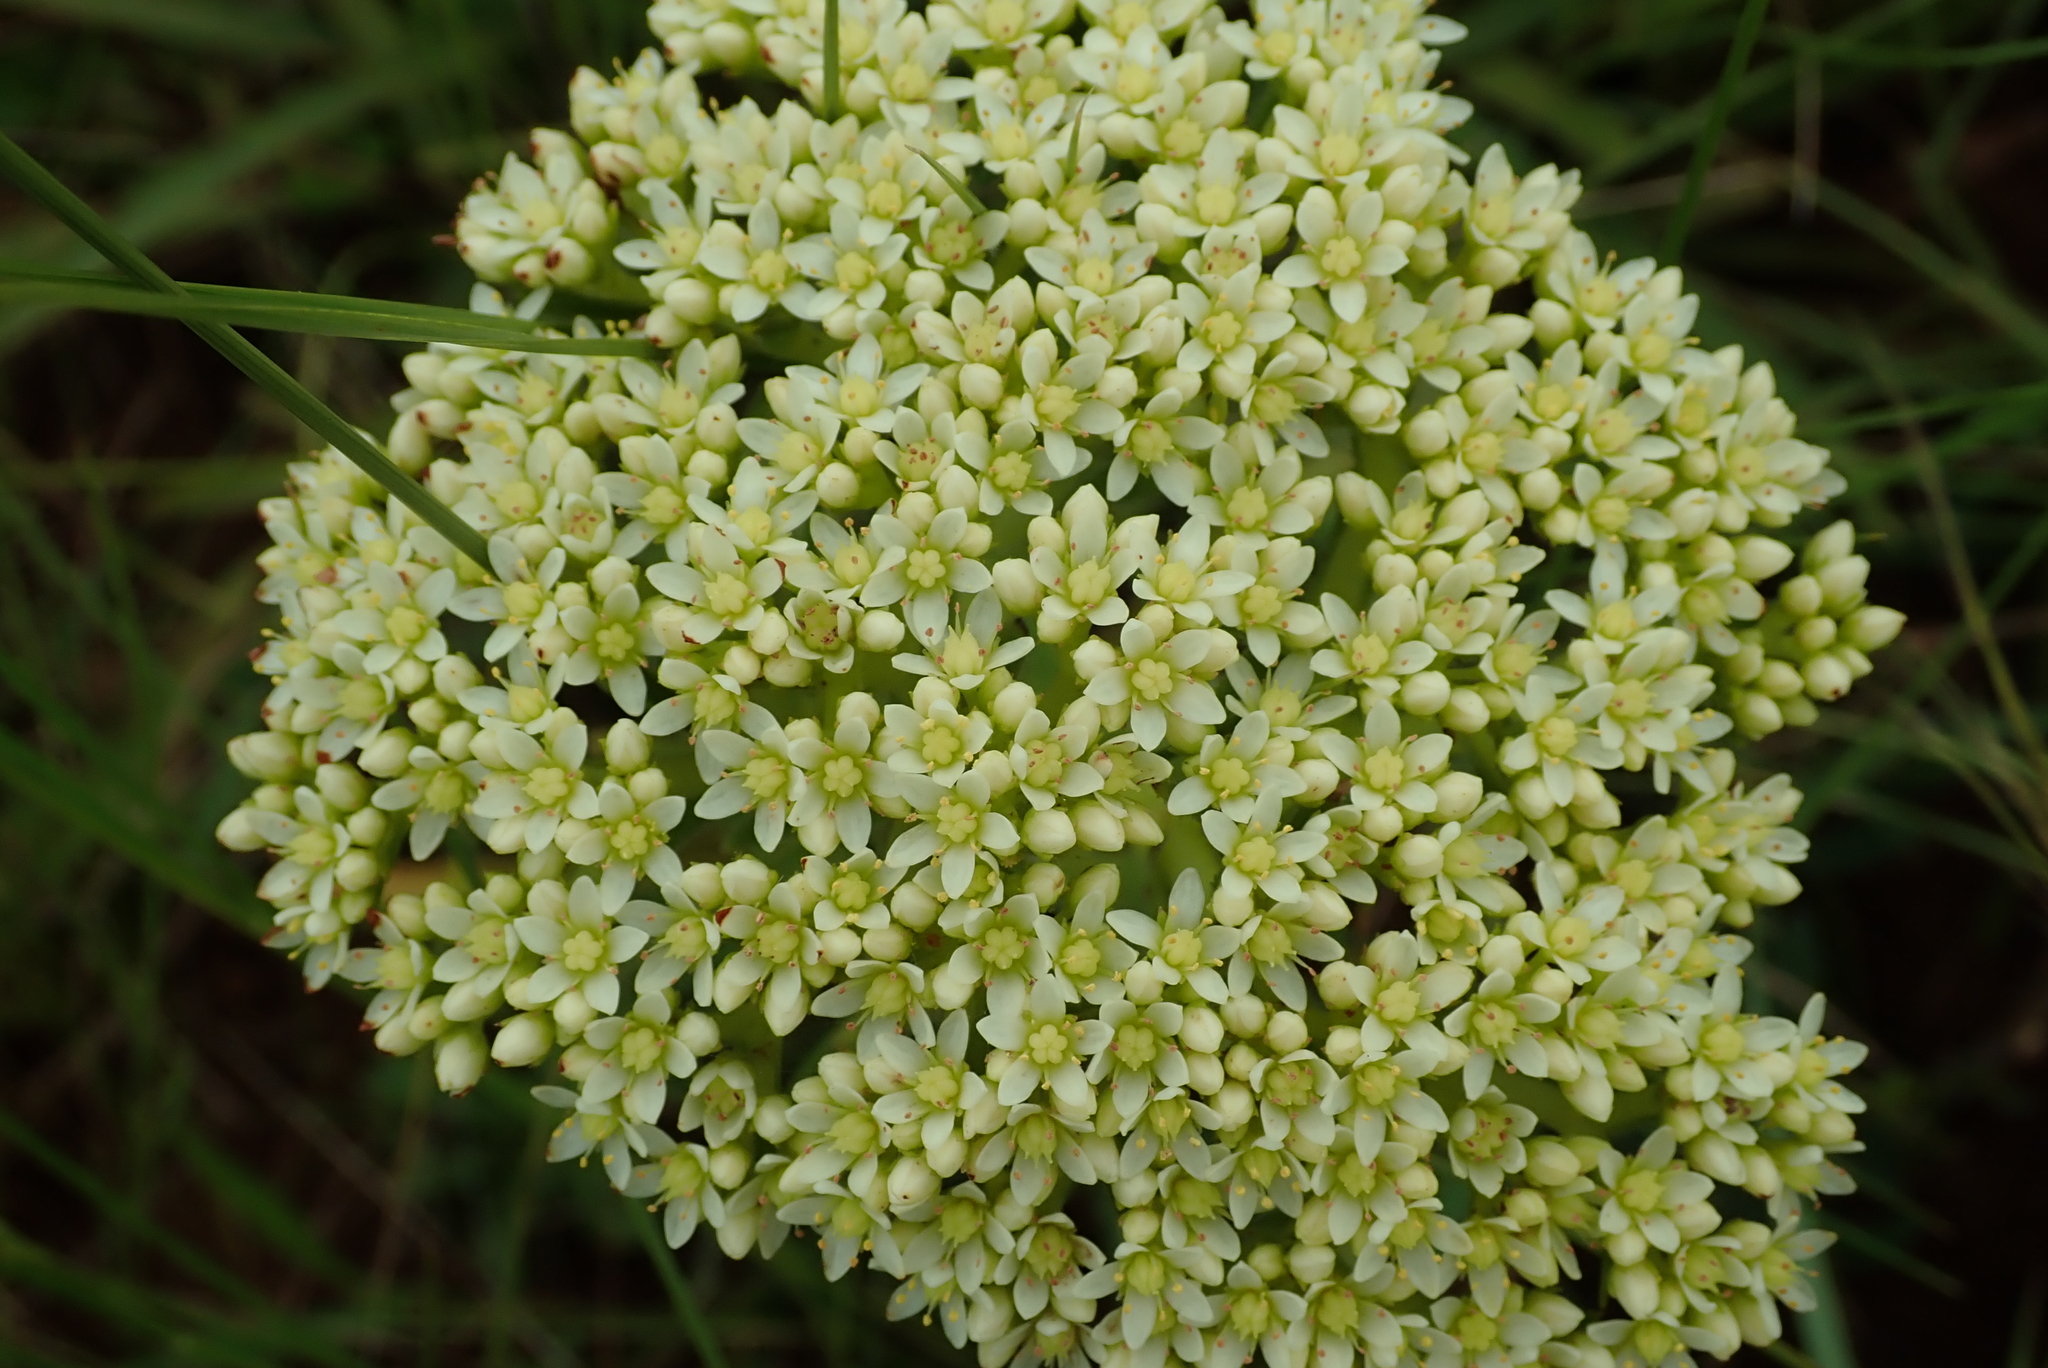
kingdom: Plantae
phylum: Tracheophyta
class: Magnoliopsida
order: Saxifragales
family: Crassulaceae
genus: Crassula
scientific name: Crassula vaginata
